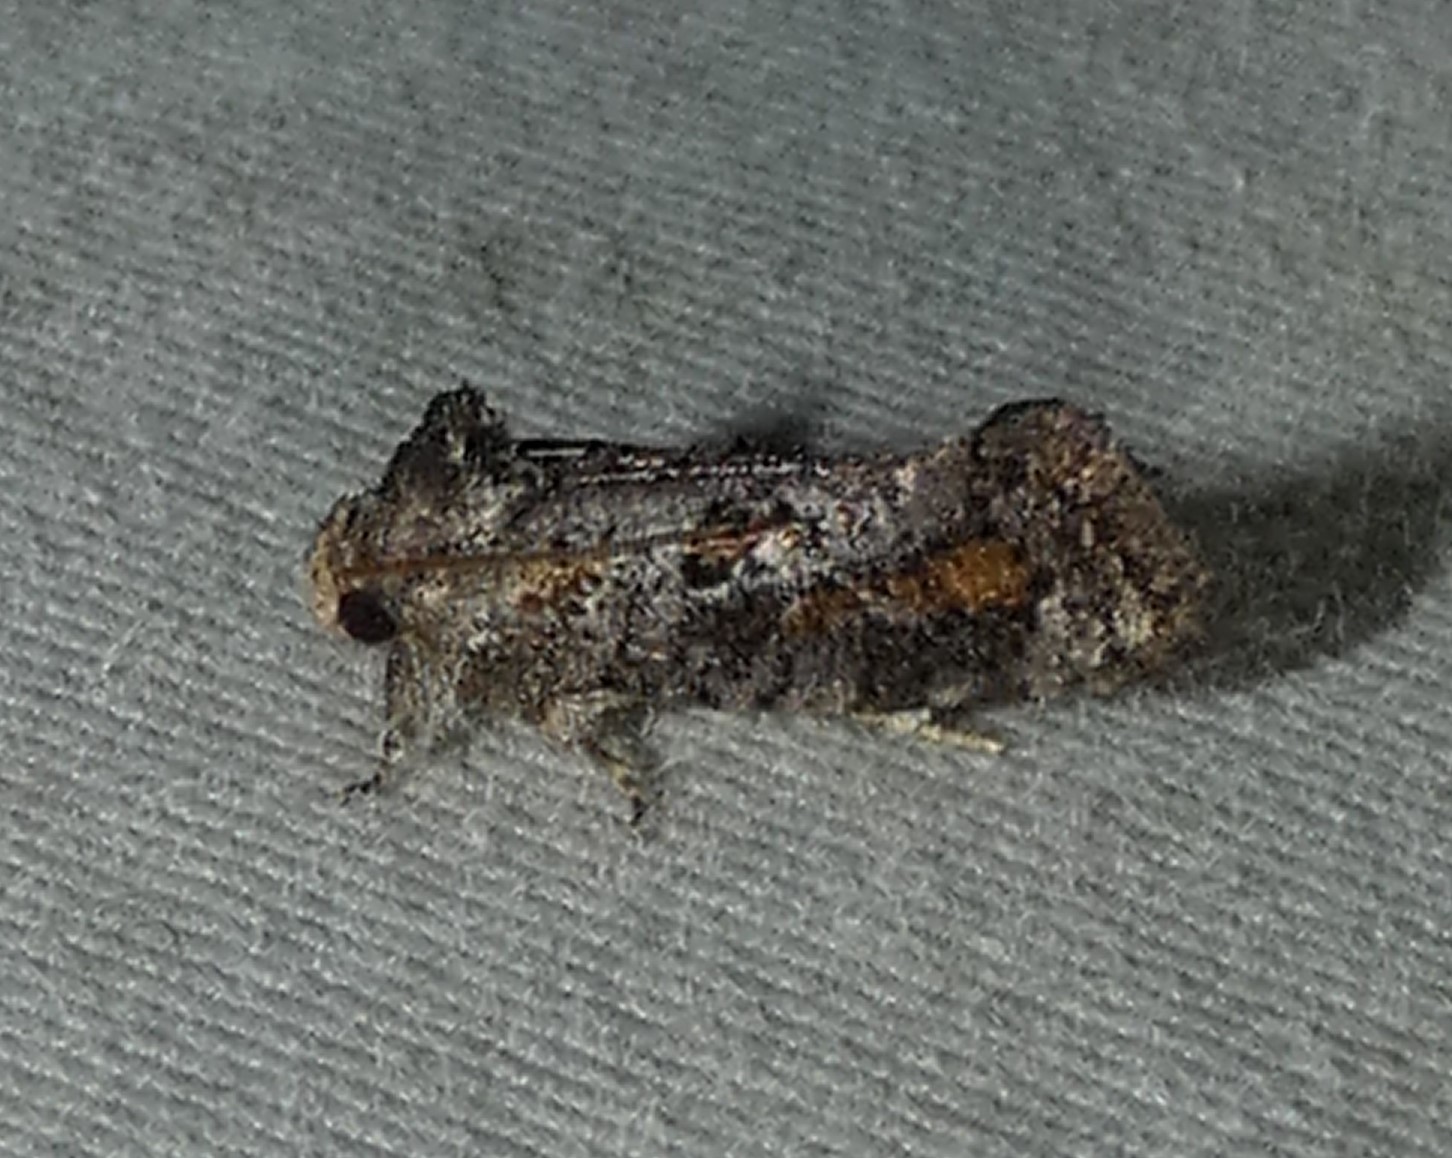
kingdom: Animalia
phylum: Arthropoda
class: Insecta
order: Lepidoptera
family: Tineidae
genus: Acrolophus
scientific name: Acrolophus piger
